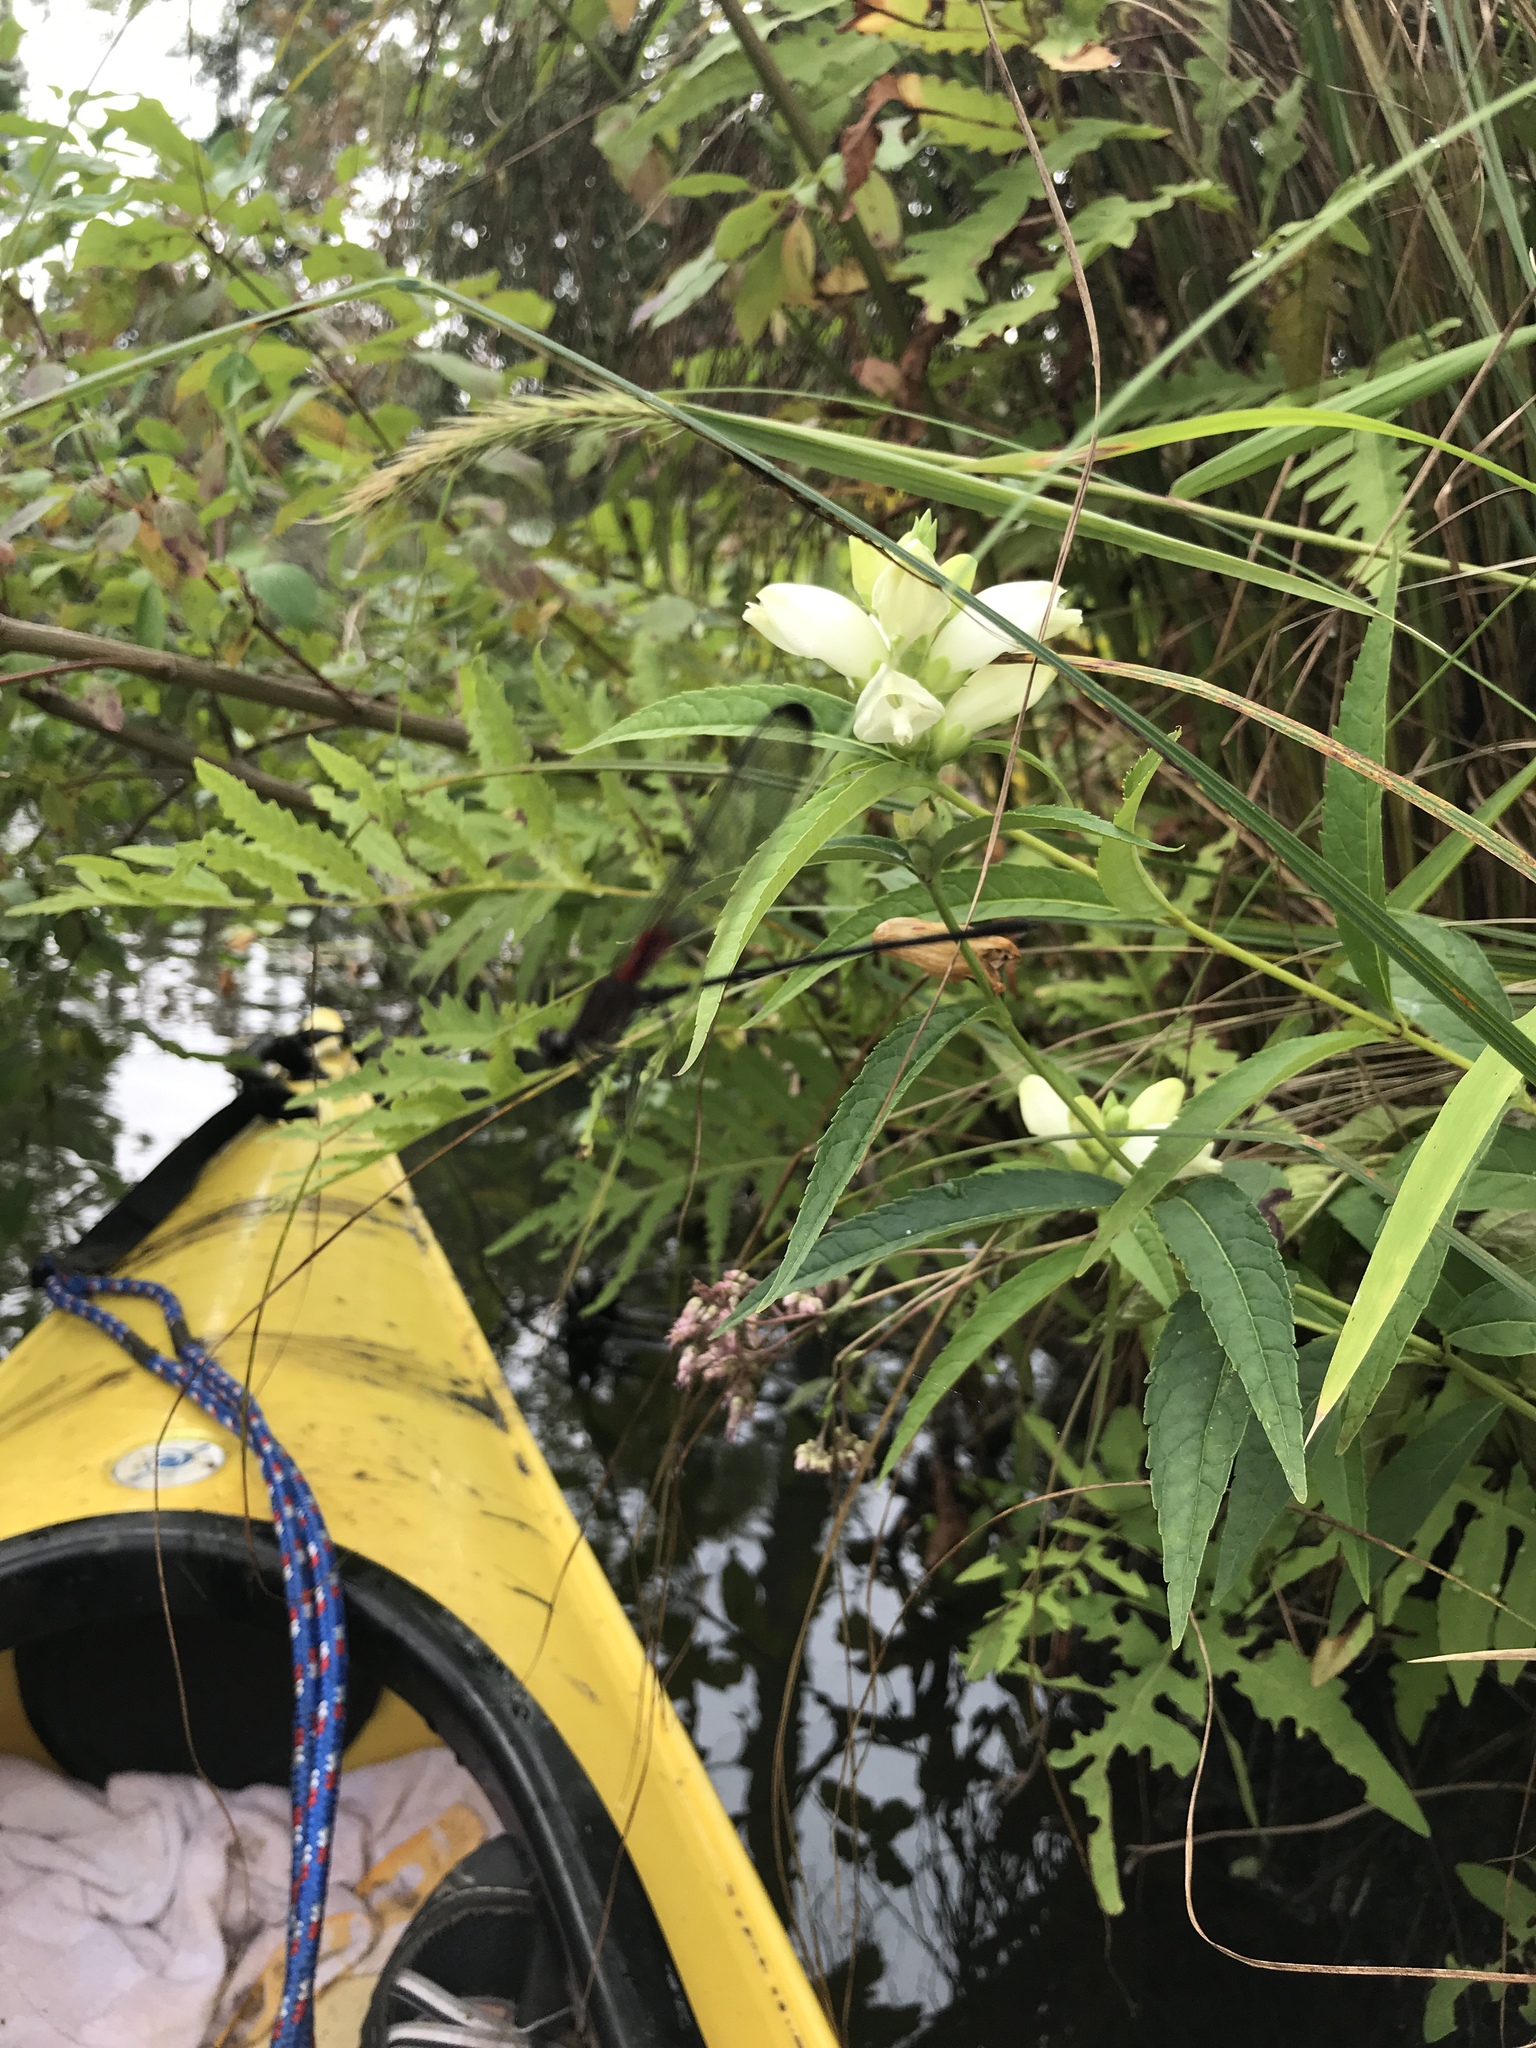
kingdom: Animalia
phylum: Arthropoda
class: Insecta
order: Odonata
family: Calopterygidae
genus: Hetaerina
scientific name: Hetaerina titia
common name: Smoky rubyspot
